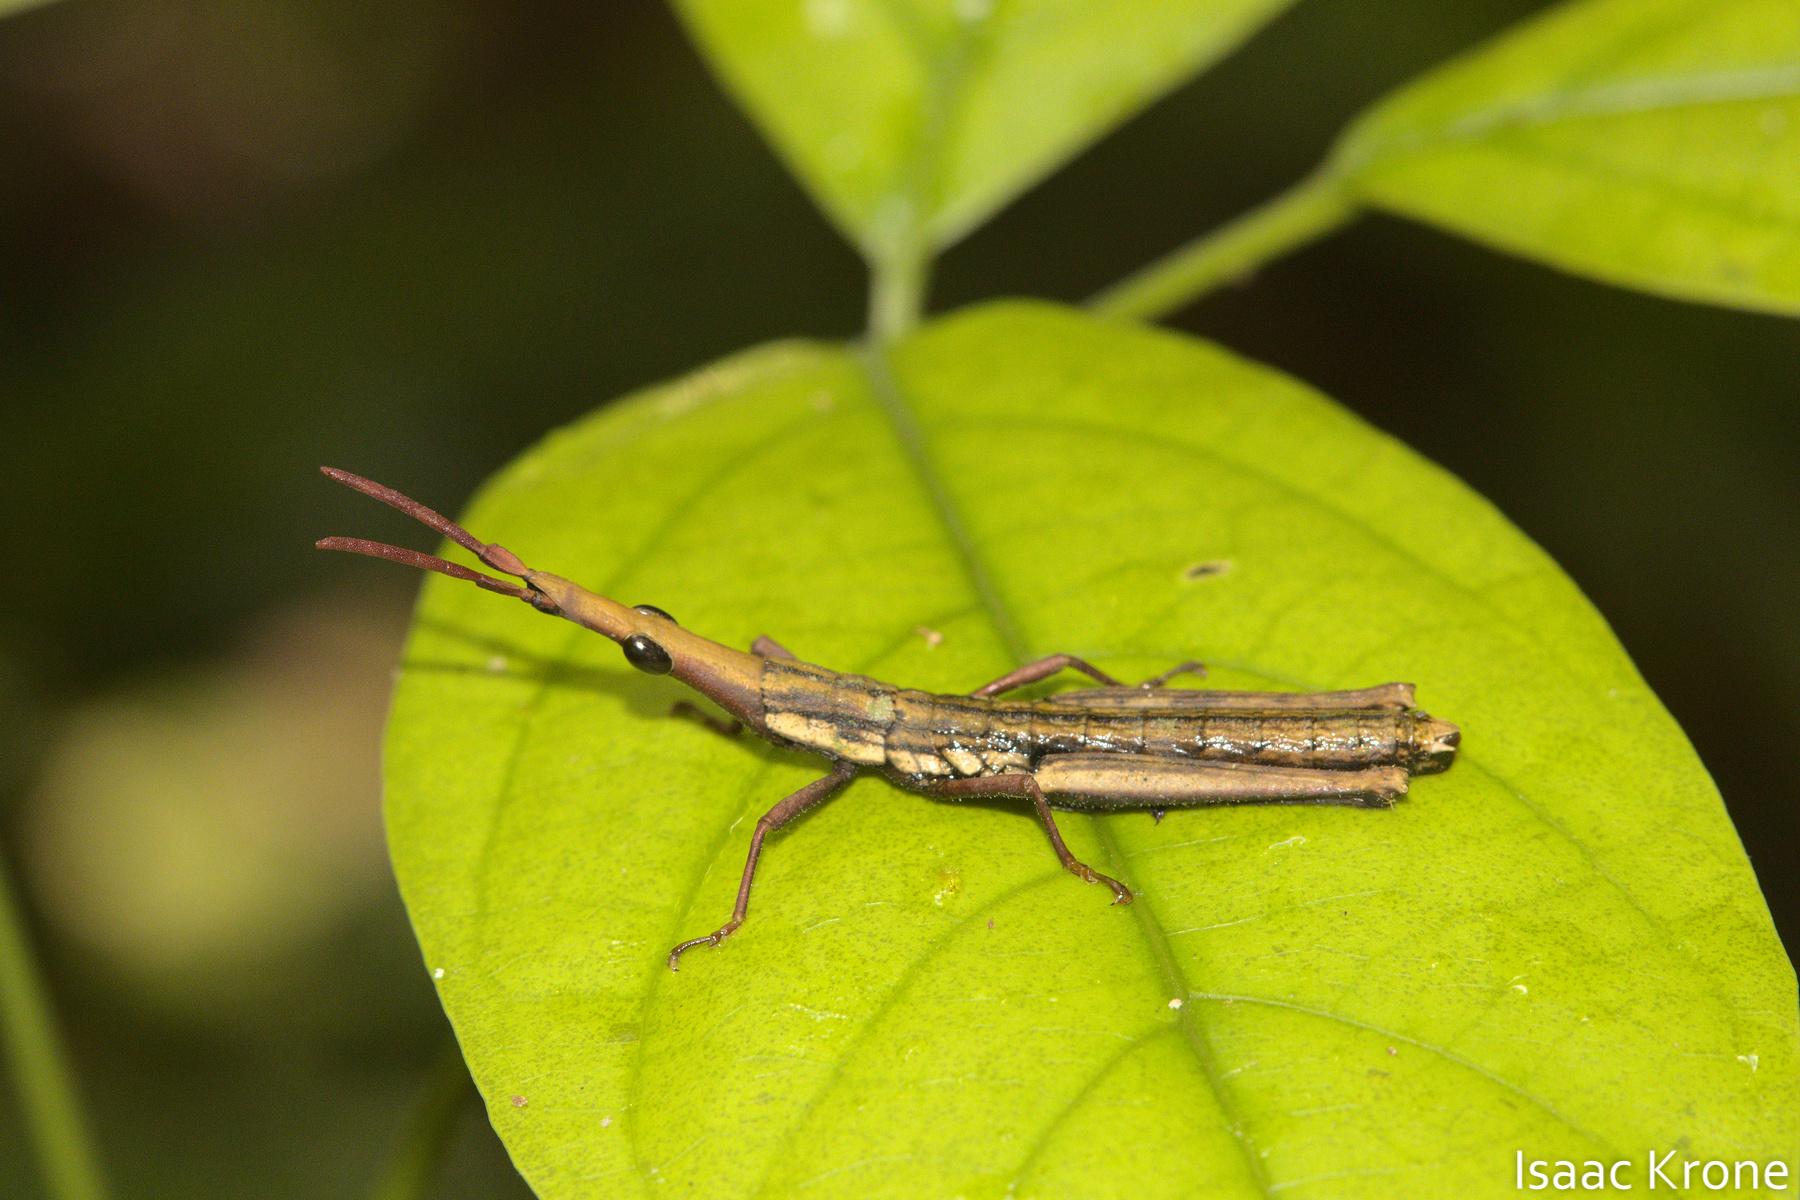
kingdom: Animalia
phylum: Arthropoda
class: Insecta
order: Orthoptera
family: Pyrgomorphidae
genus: Omura
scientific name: Omura congrua
